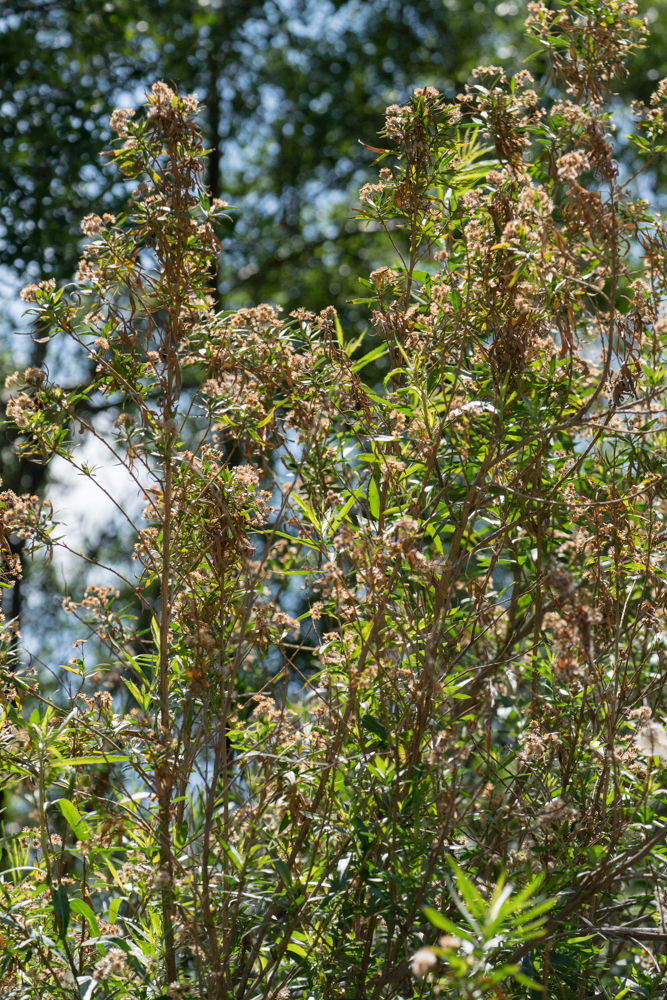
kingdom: Plantae
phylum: Tracheophyta
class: Magnoliopsida
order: Asterales
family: Asteraceae
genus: Baccharis
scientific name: Baccharis salicifolia
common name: Sticky baccharis
